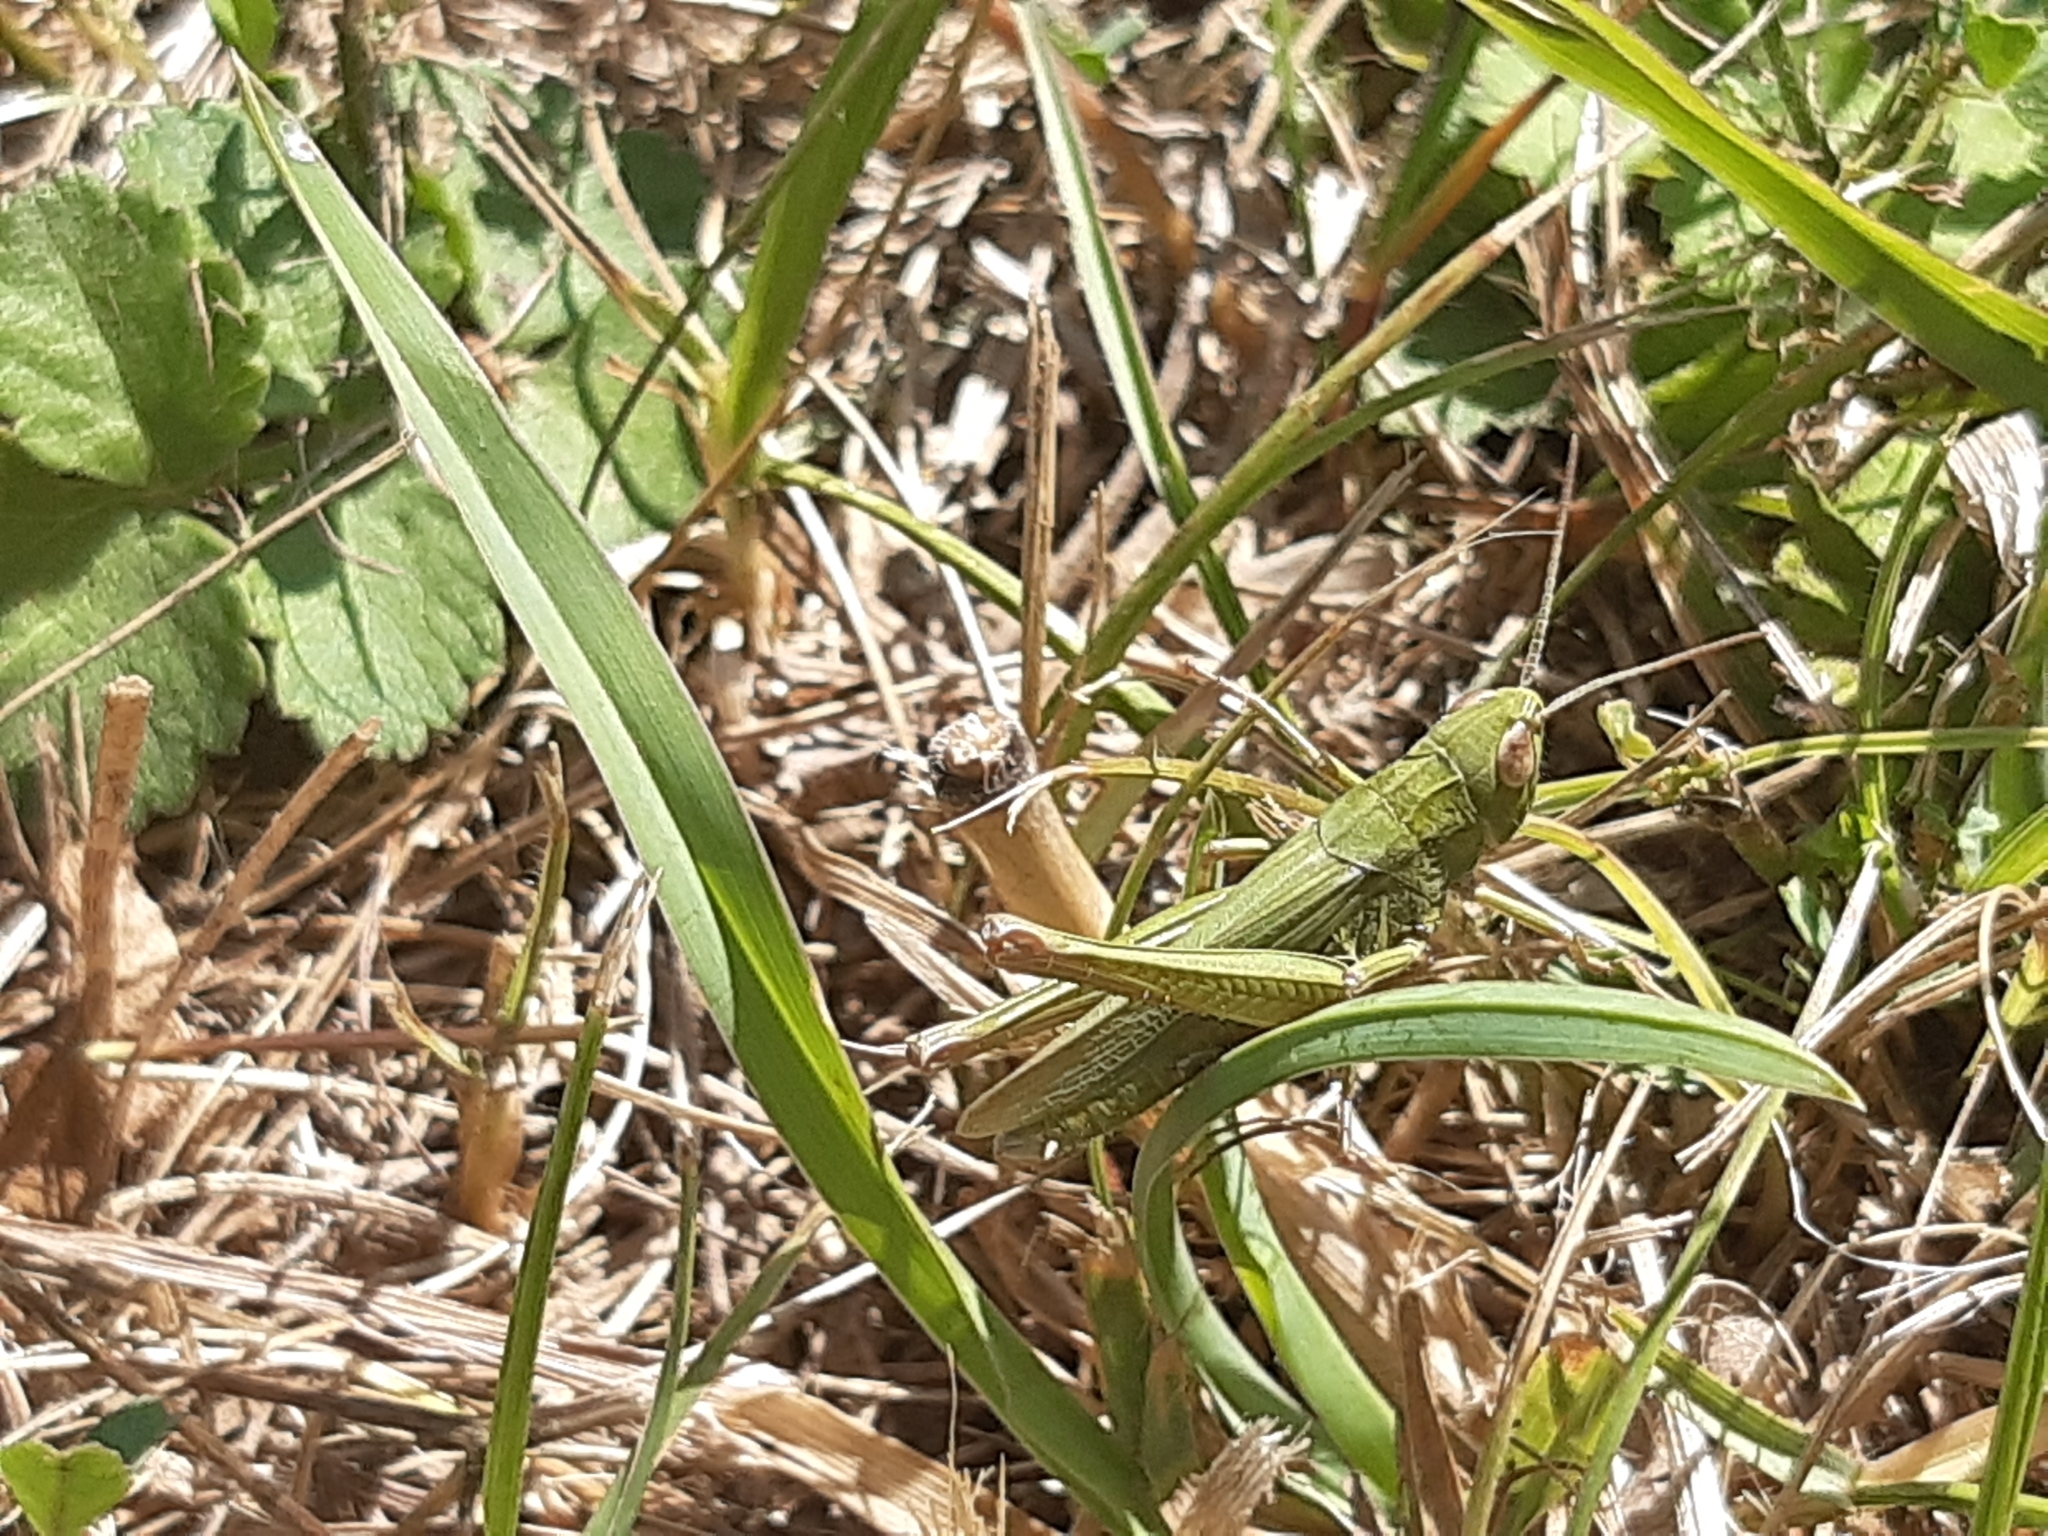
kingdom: Animalia
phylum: Arthropoda
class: Insecta
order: Orthoptera
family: Acrididae
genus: Chorthippus
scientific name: Chorthippus dorsatus
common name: Steppe grasshopper
